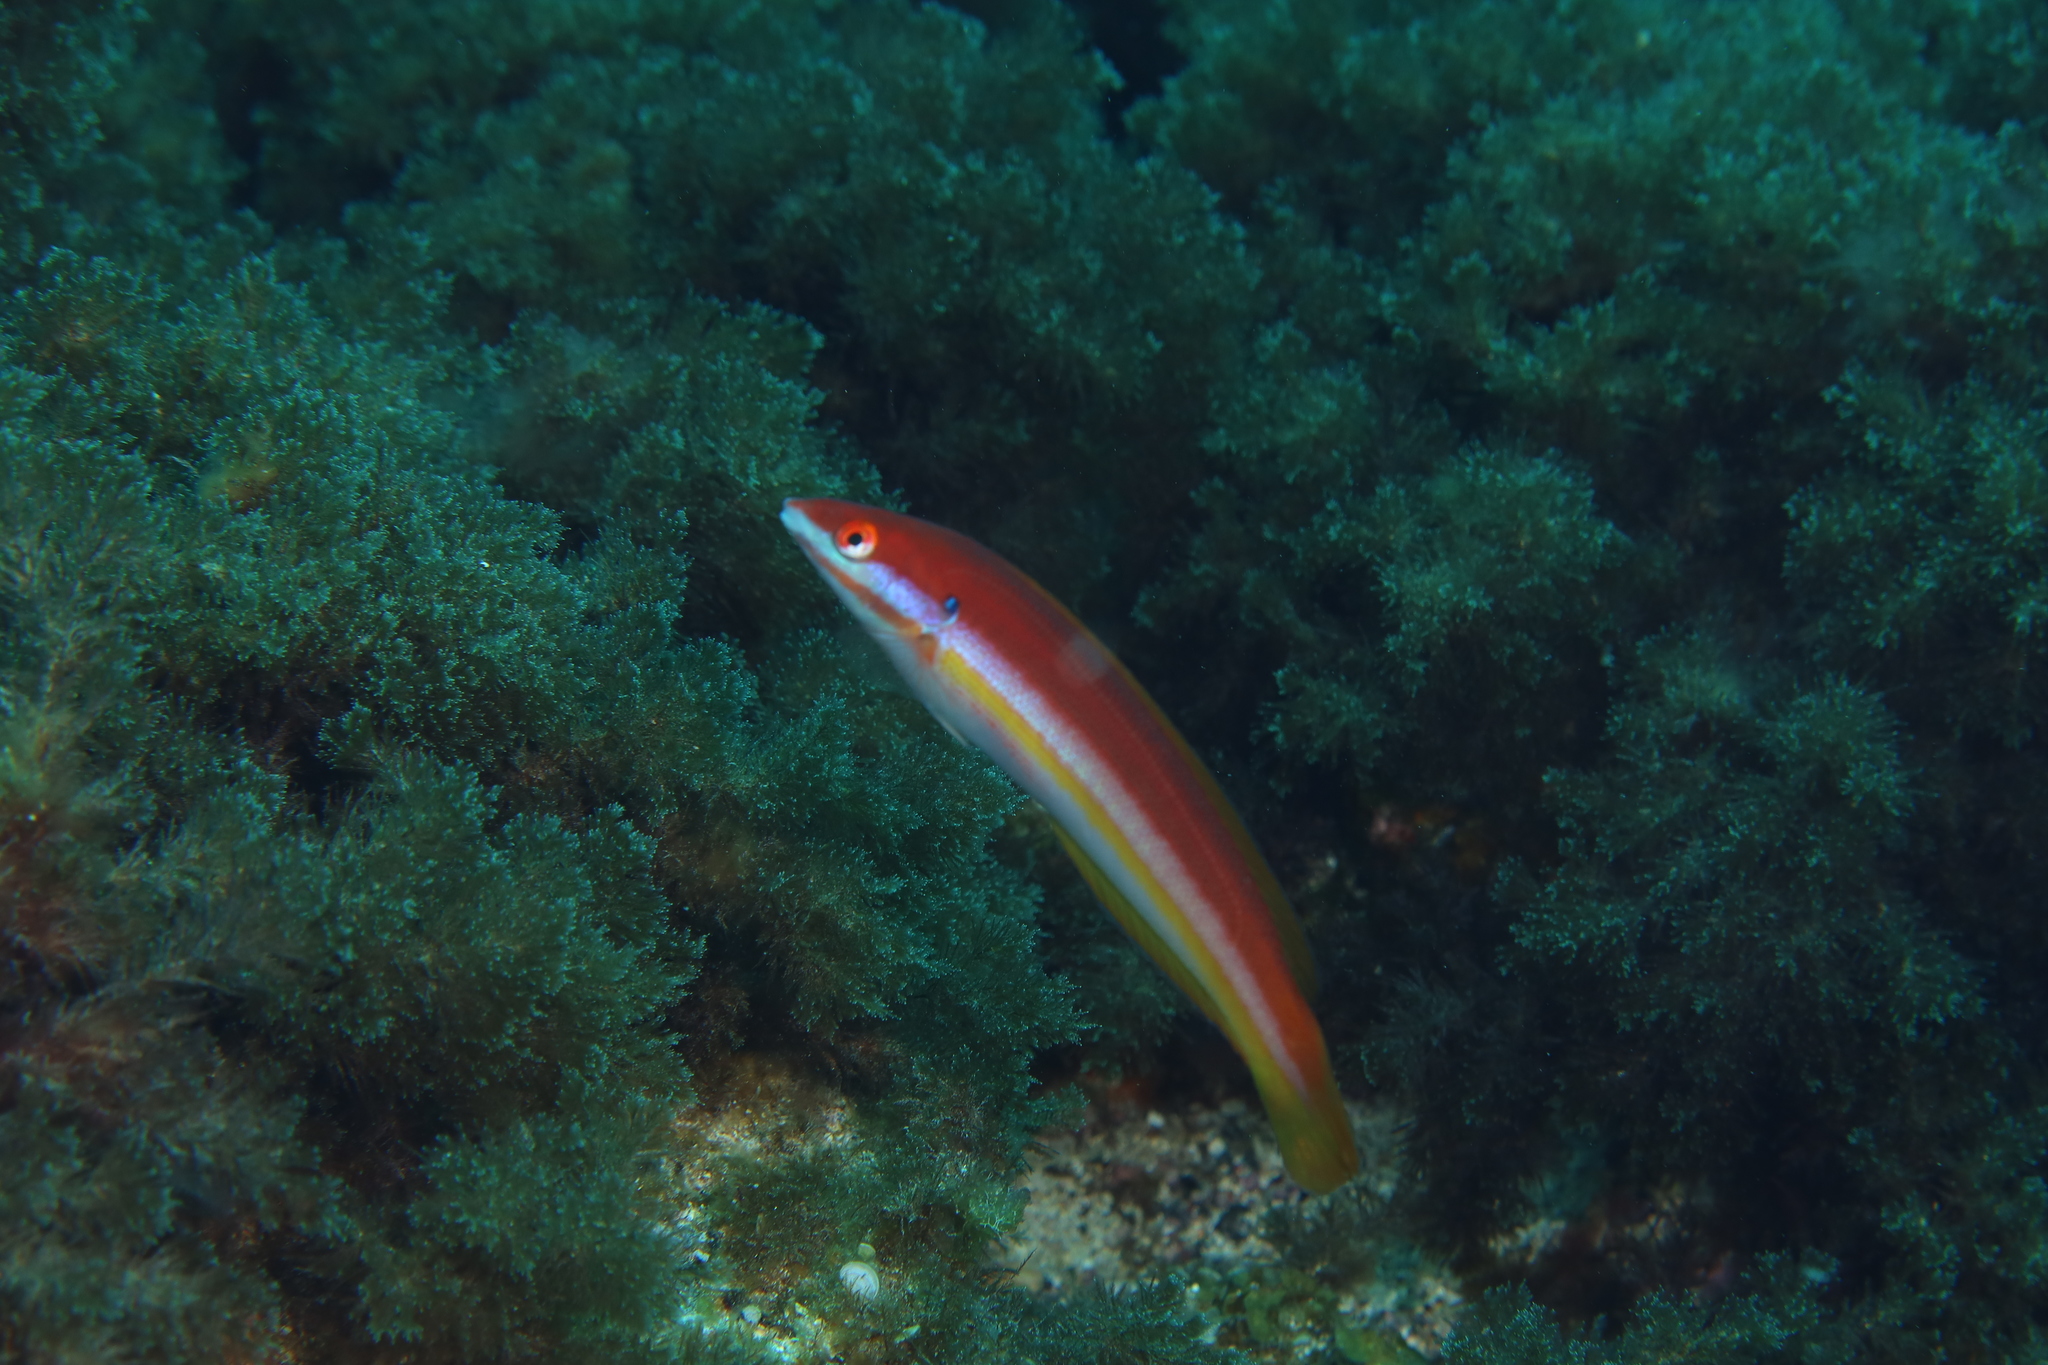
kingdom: Animalia
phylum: Chordata
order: Perciformes
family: Labridae
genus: Coris
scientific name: Coris
